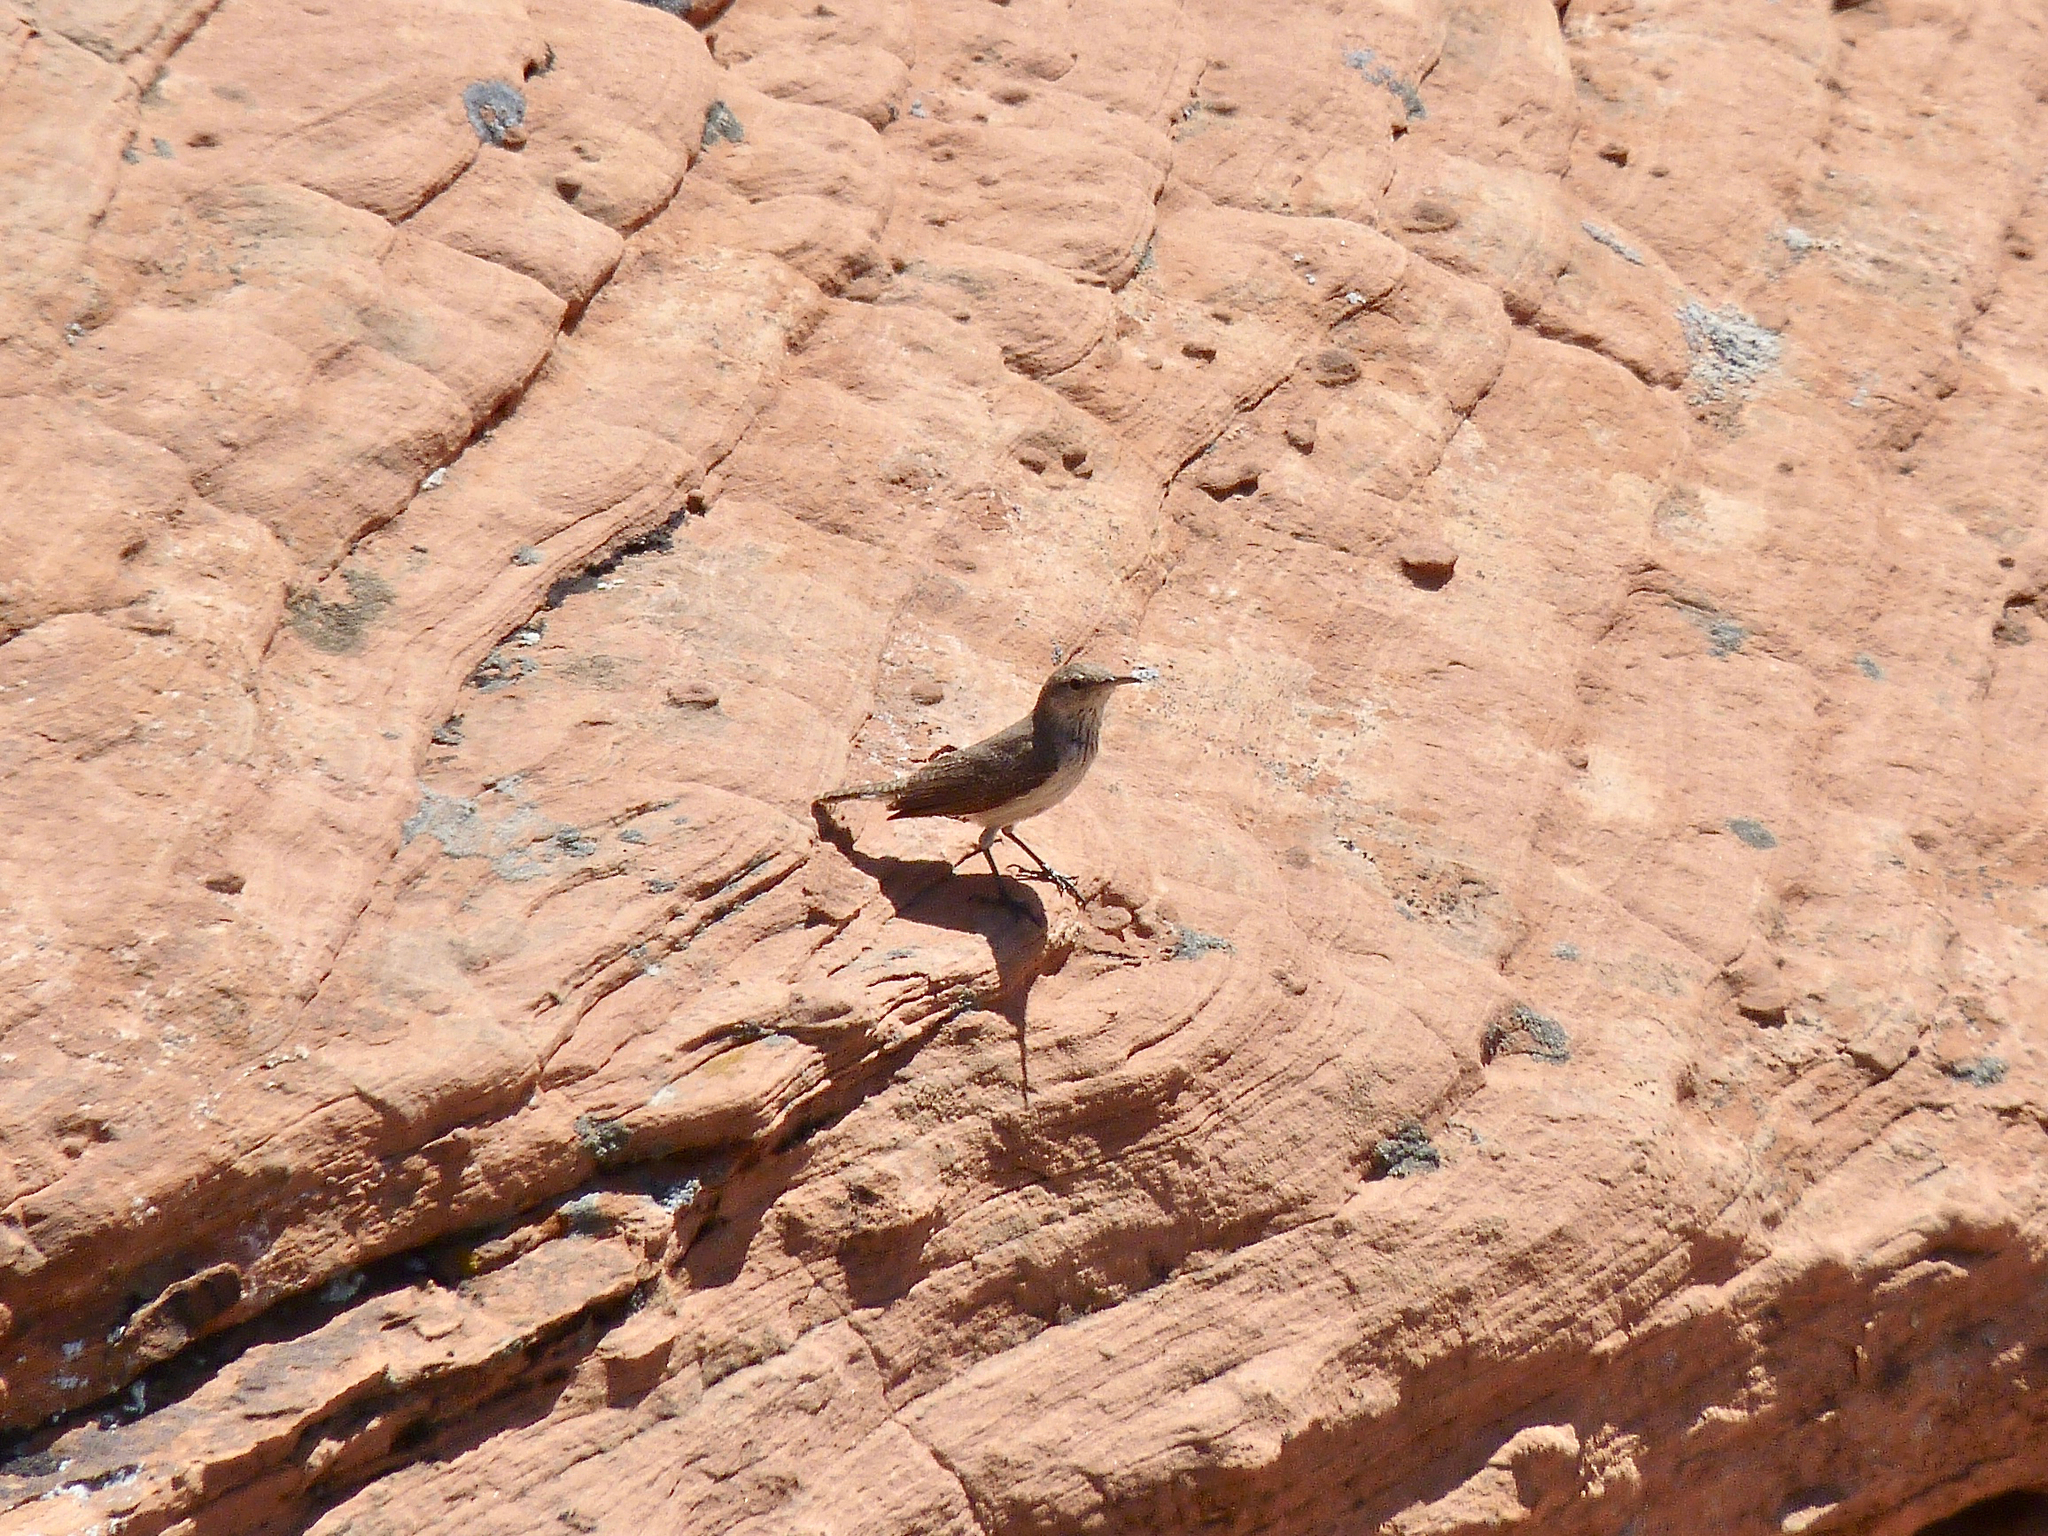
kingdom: Animalia
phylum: Chordata
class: Aves
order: Passeriformes
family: Troglodytidae
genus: Salpinctes
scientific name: Salpinctes obsoletus
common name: Rock wren
